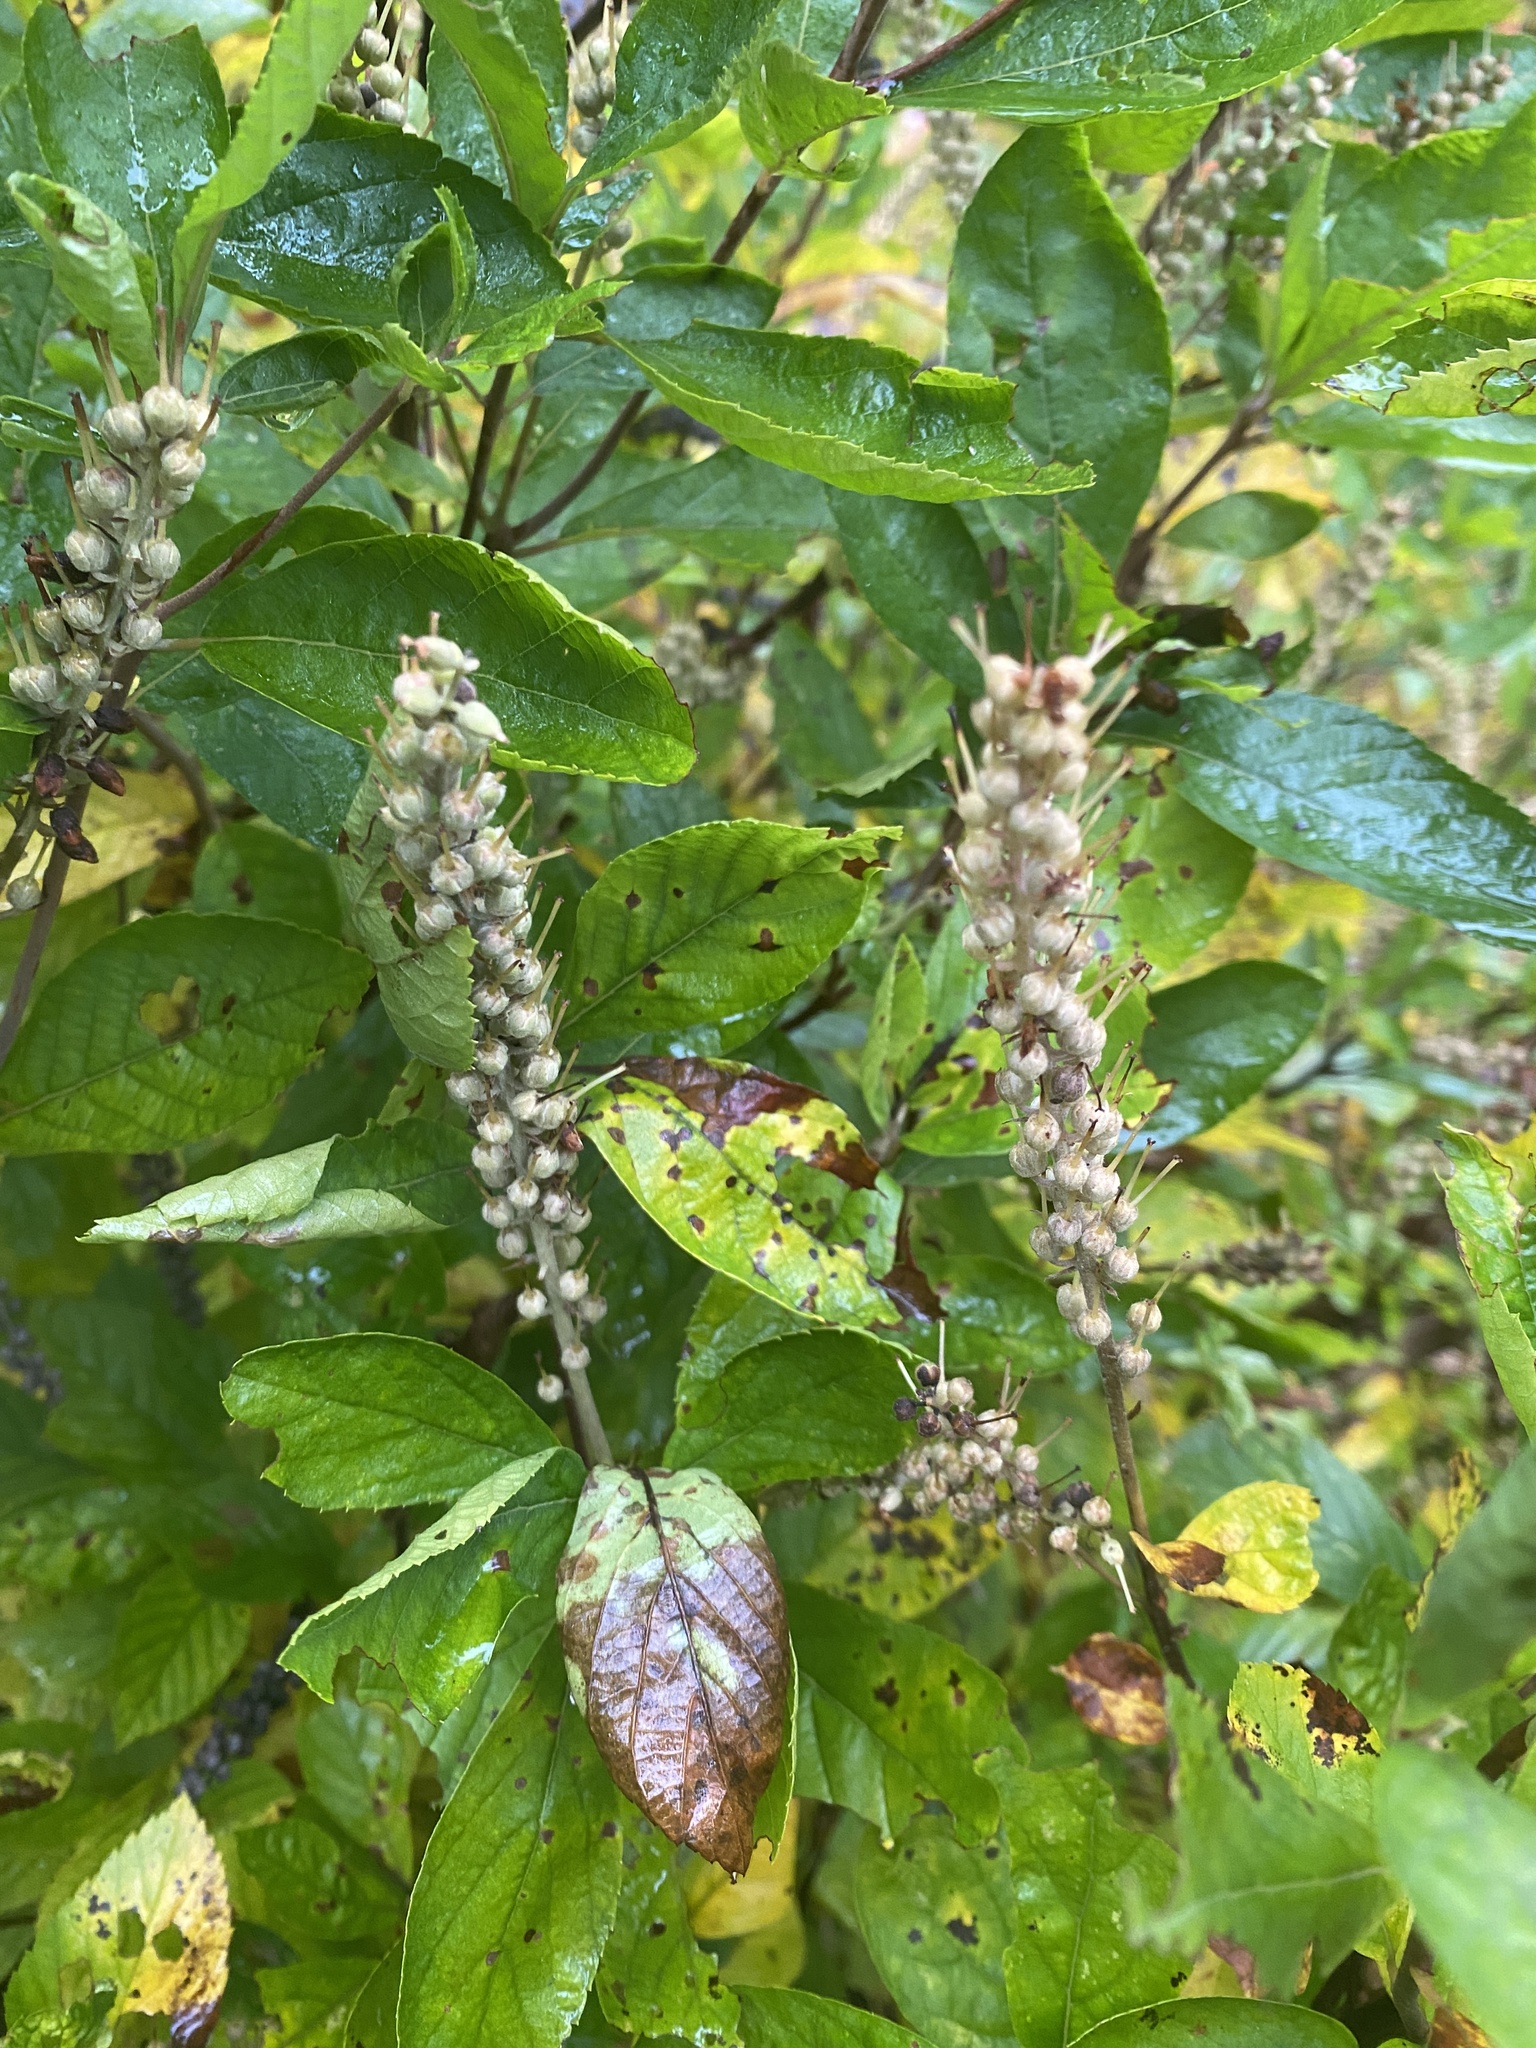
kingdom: Plantae
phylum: Tracheophyta
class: Magnoliopsida
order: Ericales
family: Clethraceae
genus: Clethra
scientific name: Clethra alnifolia
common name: Sweet pepperbush
